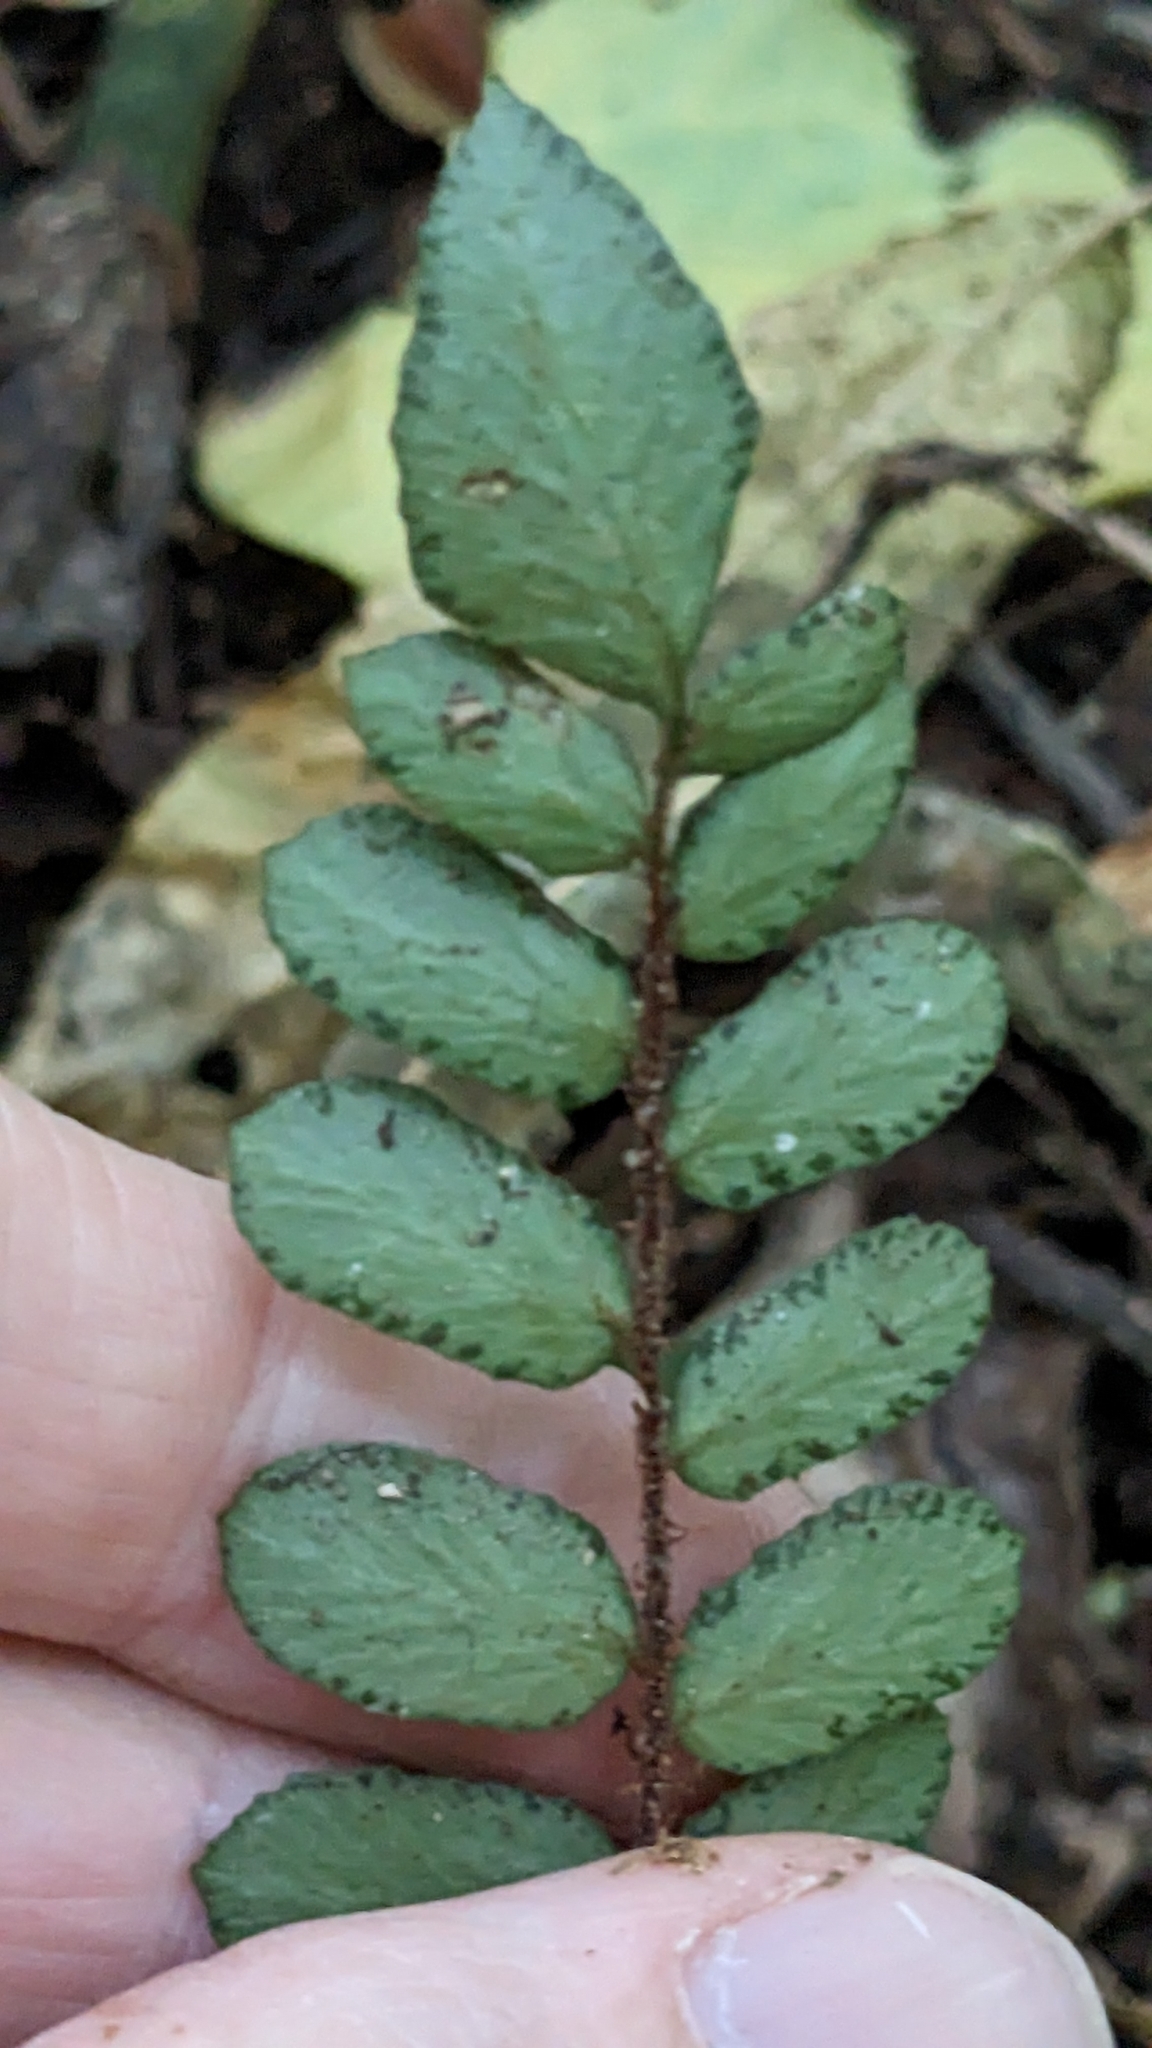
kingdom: Plantae
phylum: Tracheophyta
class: Polypodiopsida
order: Polypodiales
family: Pteridaceae
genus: Pellaea
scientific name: Pellaea rotundifolia
